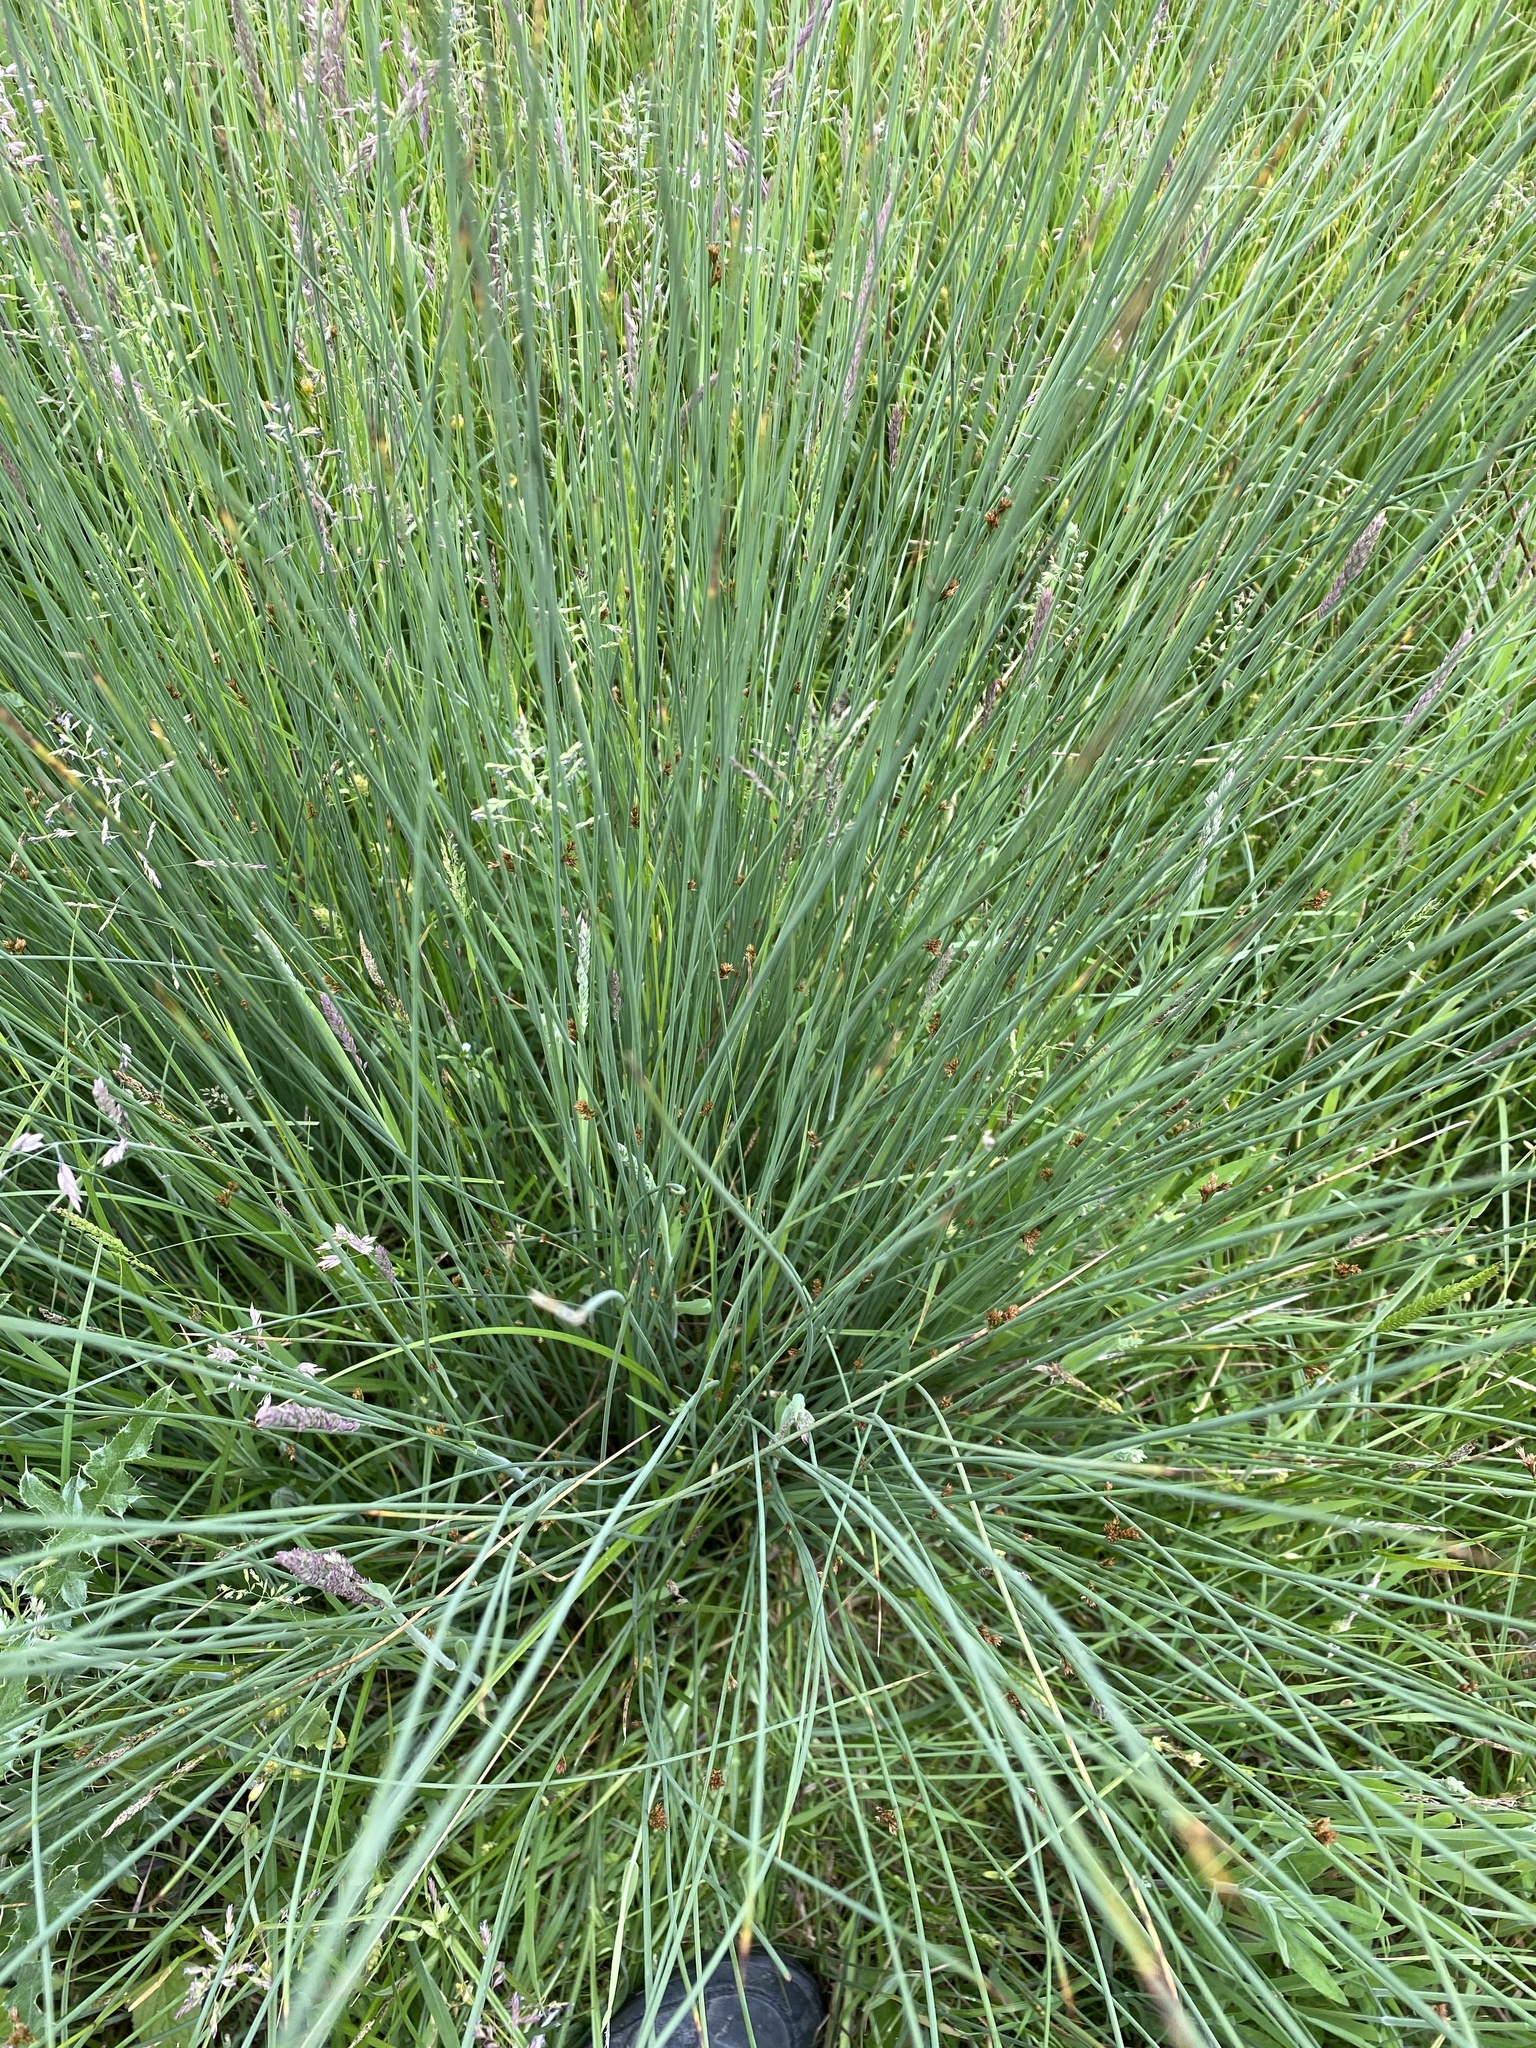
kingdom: Plantae
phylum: Tracheophyta
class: Liliopsida
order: Poales
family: Juncaceae
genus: Juncus
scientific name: Juncus inflexus
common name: Hard rush
